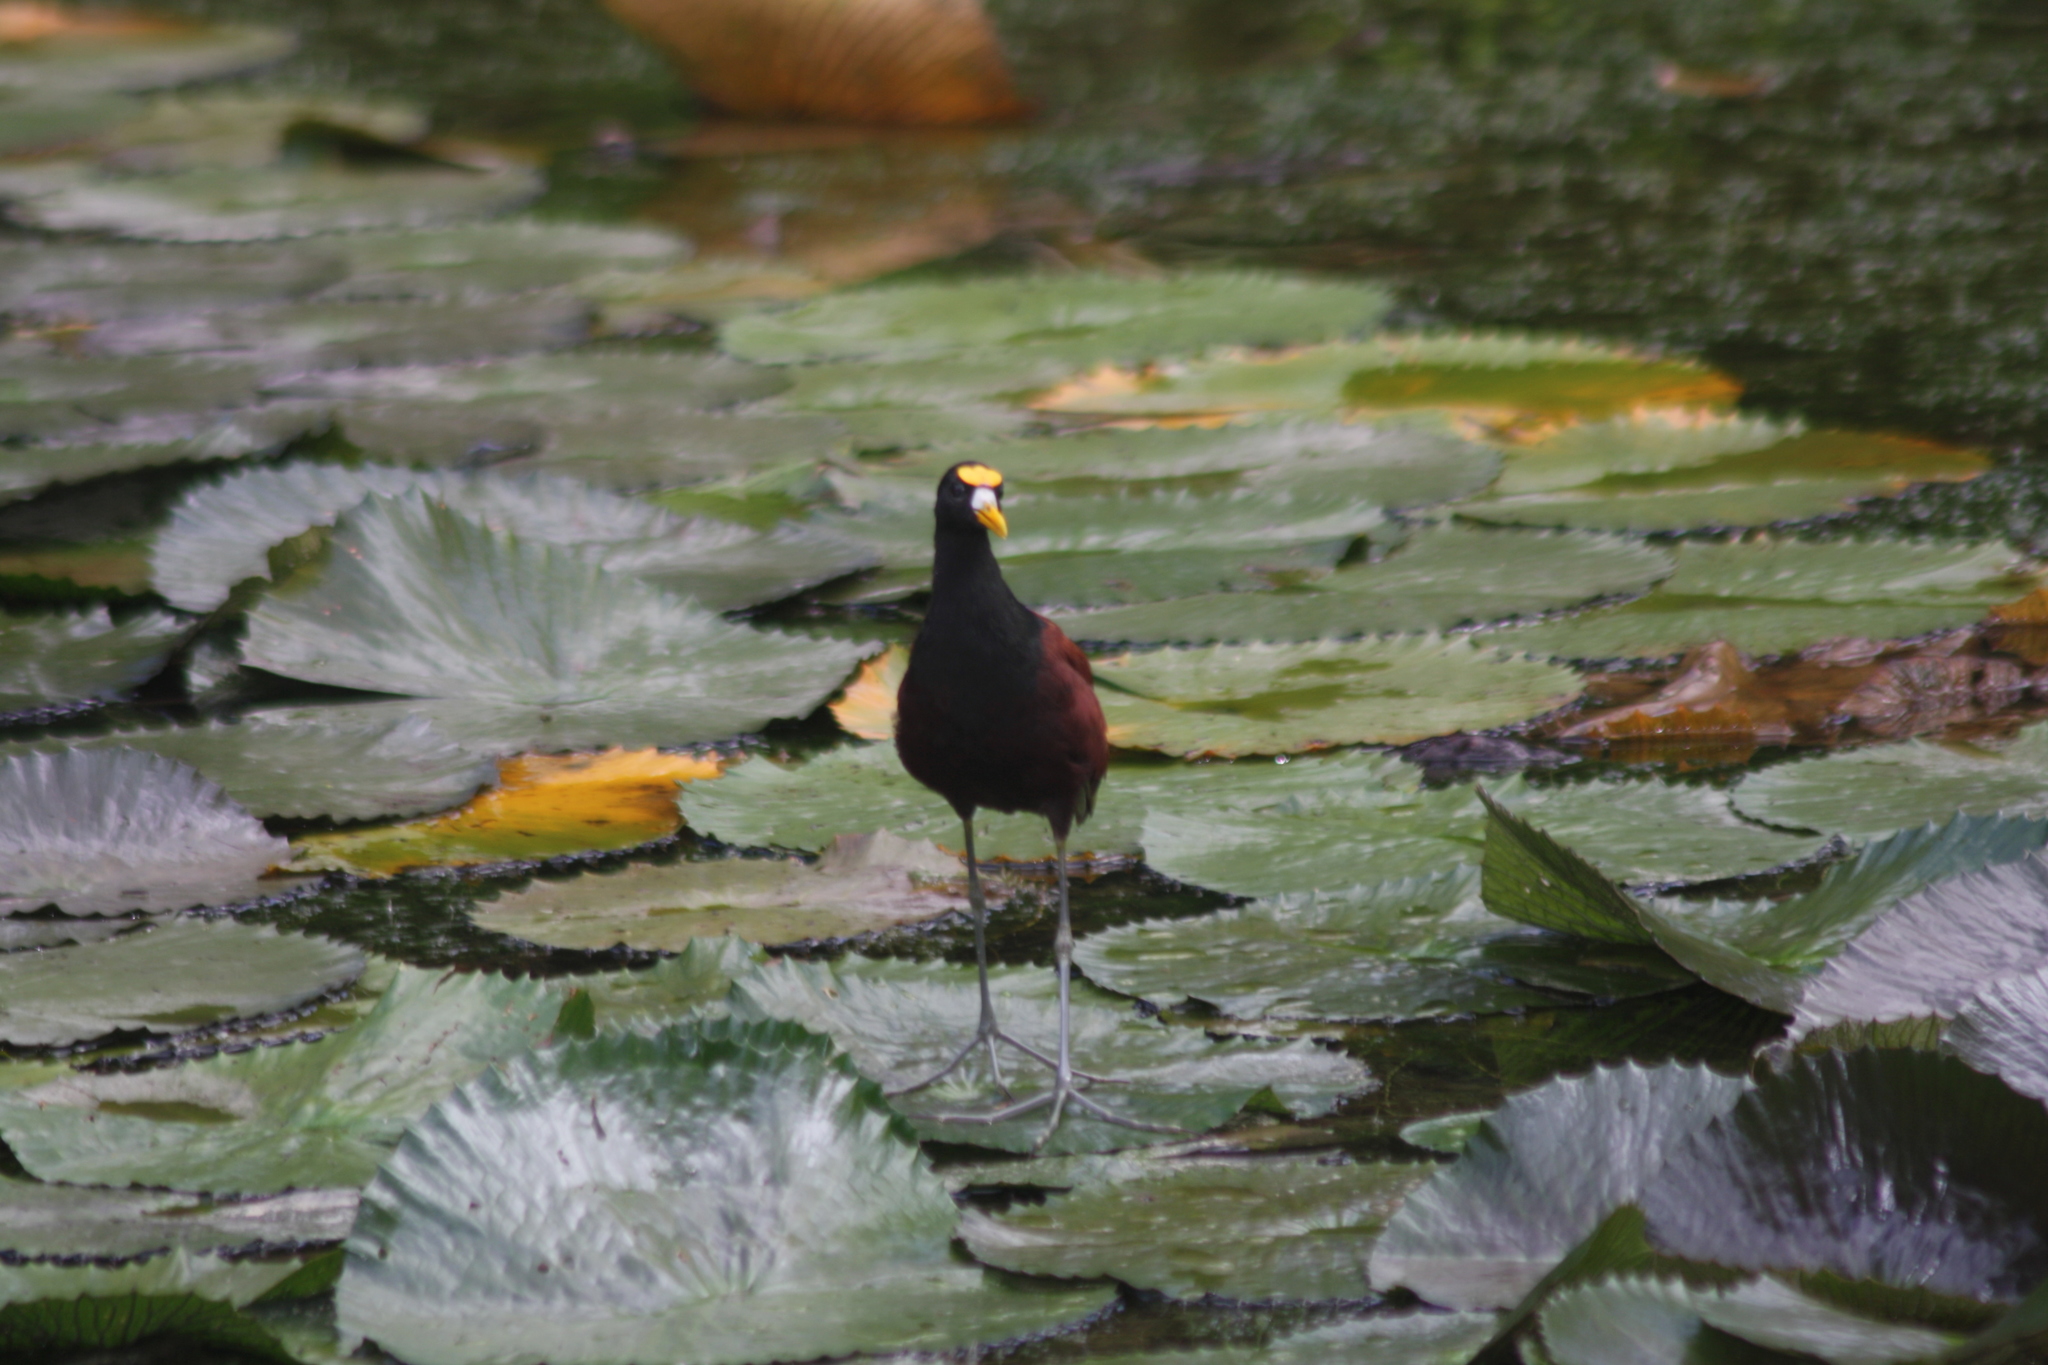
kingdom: Animalia
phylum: Chordata
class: Aves
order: Charadriiformes
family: Jacanidae
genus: Jacana
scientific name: Jacana spinosa
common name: Northern jacana
